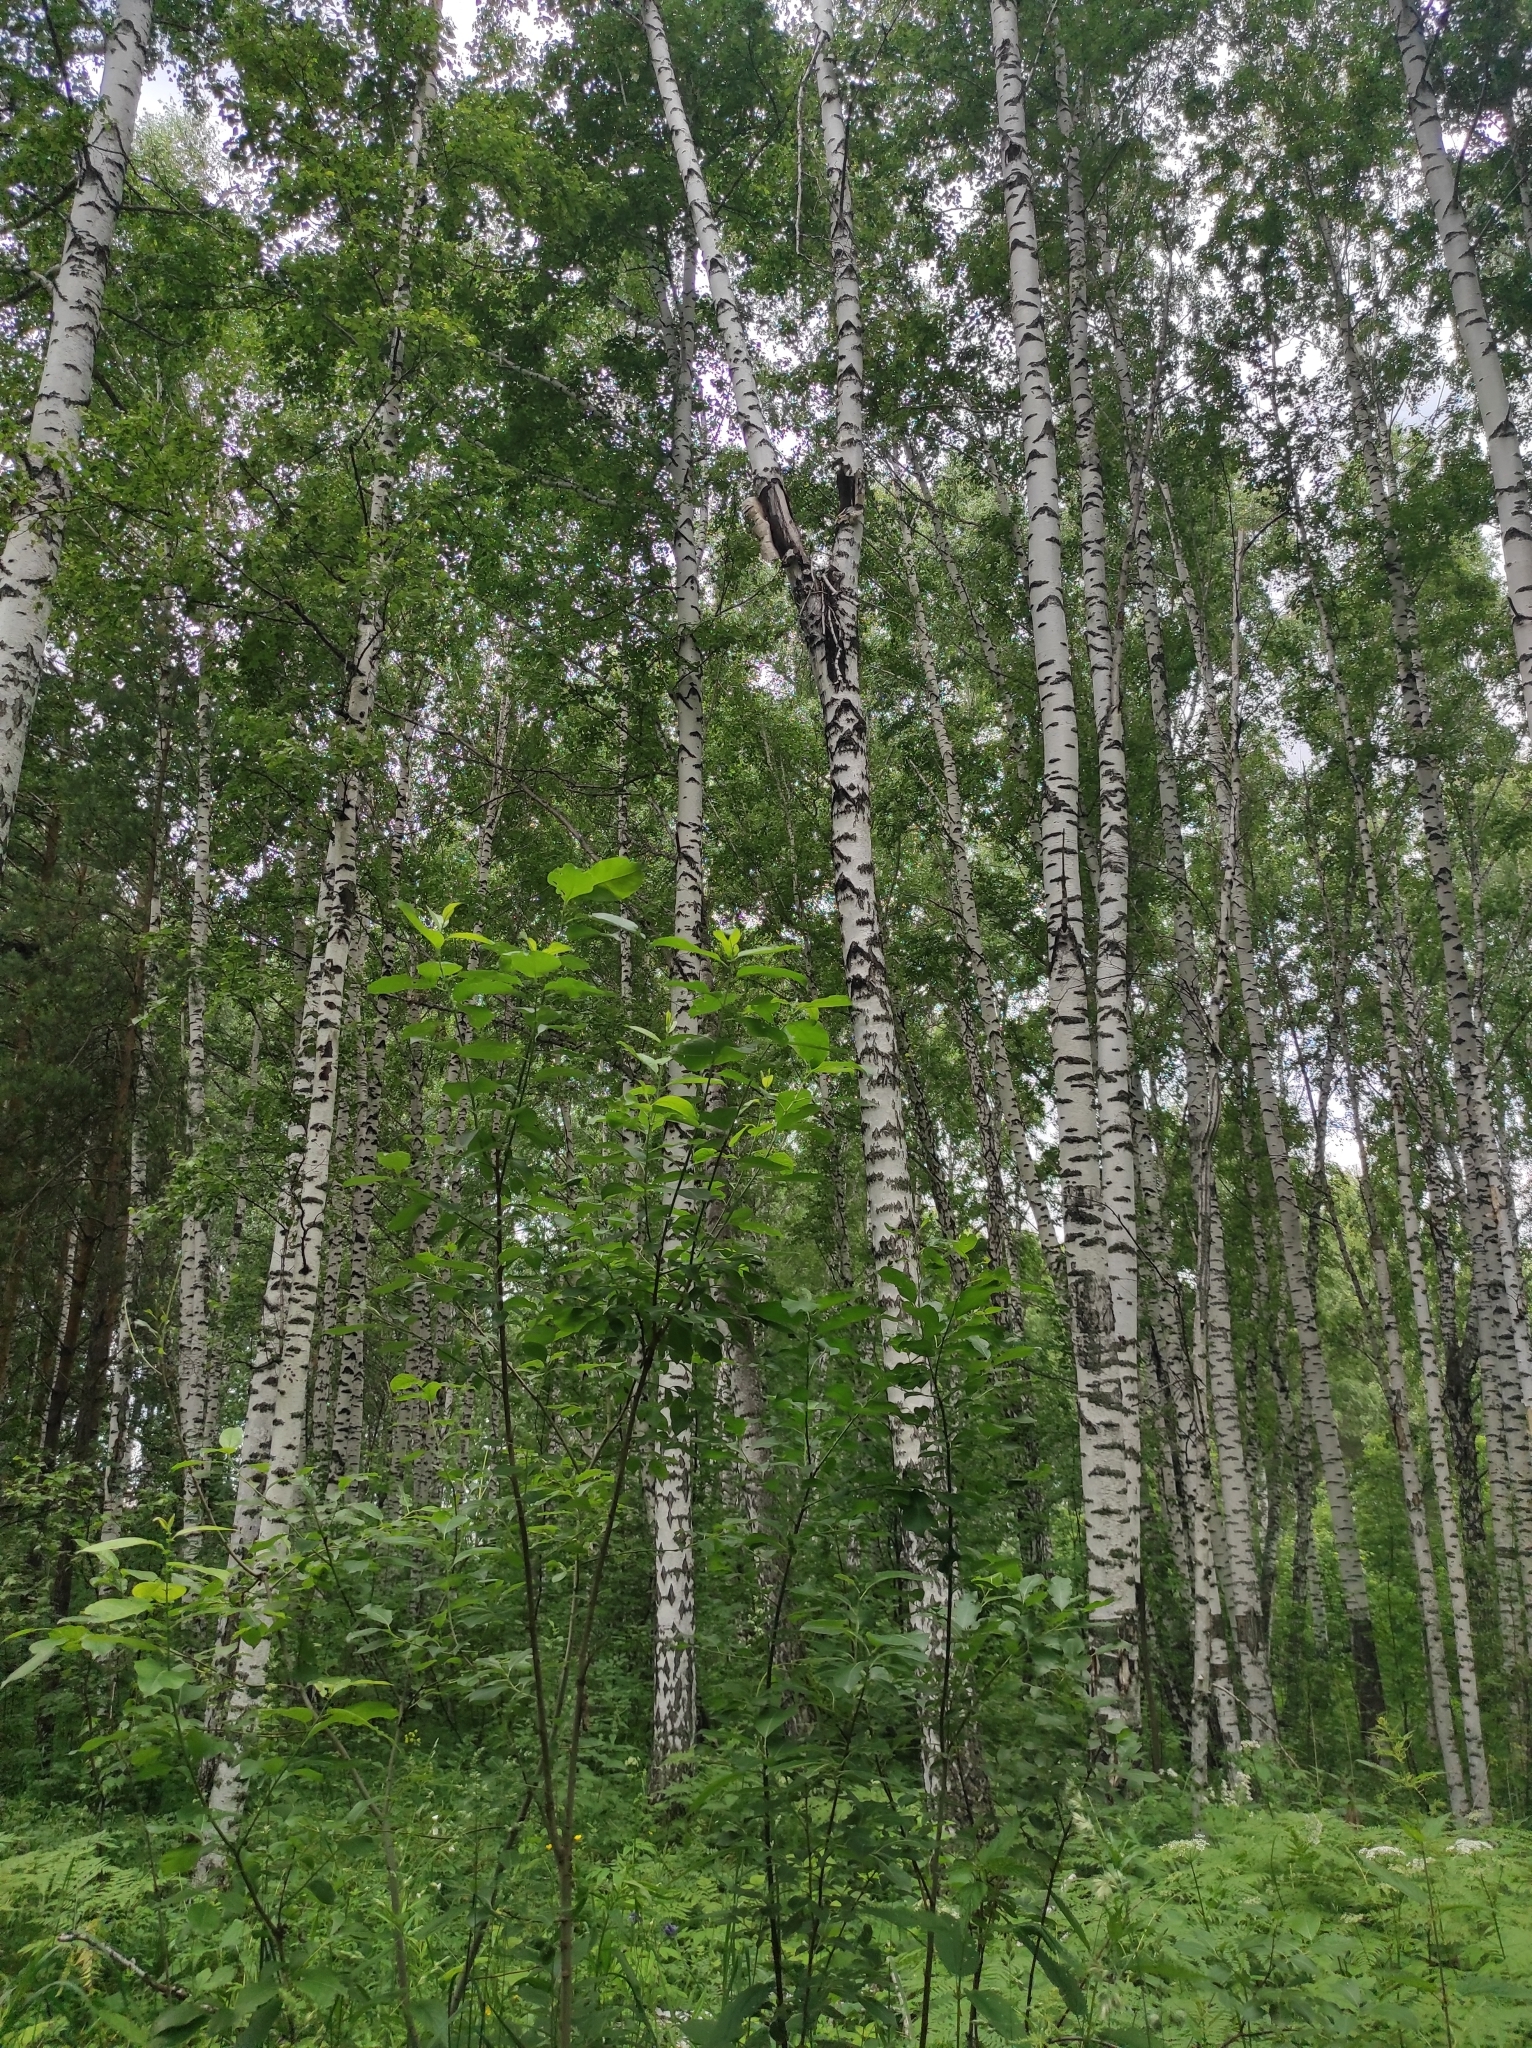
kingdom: Plantae
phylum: Tracheophyta
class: Magnoliopsida
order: Fagales
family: Betulaceae
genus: Betula
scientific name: Betula pendula
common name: Silver birch
